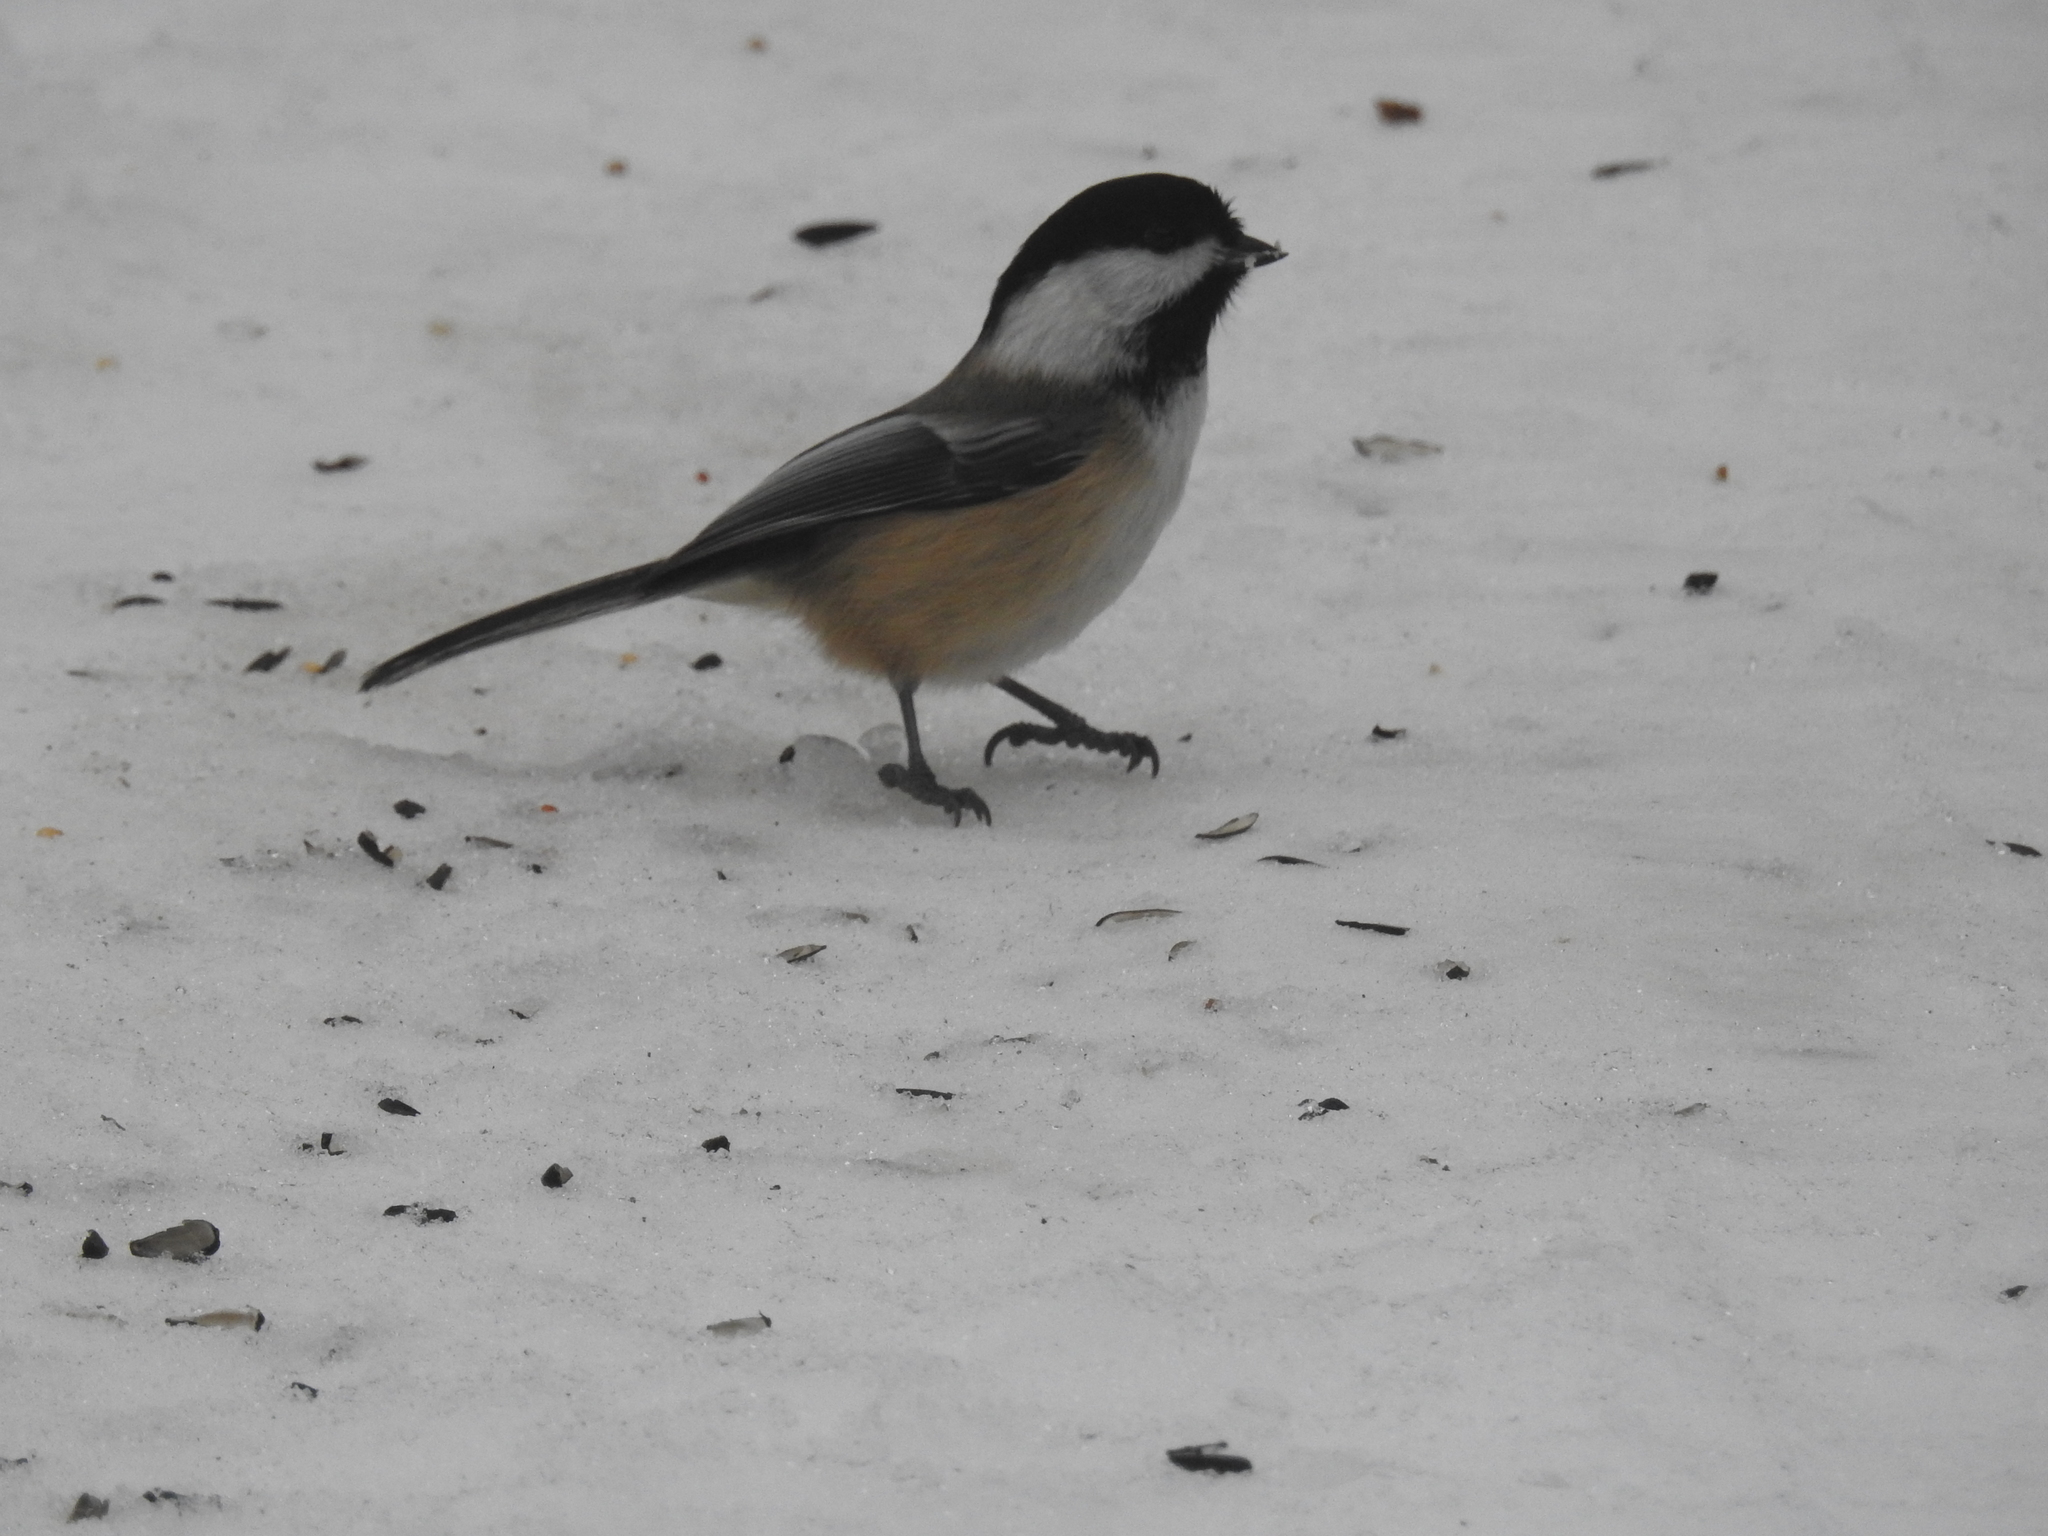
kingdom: Animalia
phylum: Chordata
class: Aves
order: Passeriformes
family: Paridae
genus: Poecile
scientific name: Poecile atricapillus
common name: Black-capped chickadee
